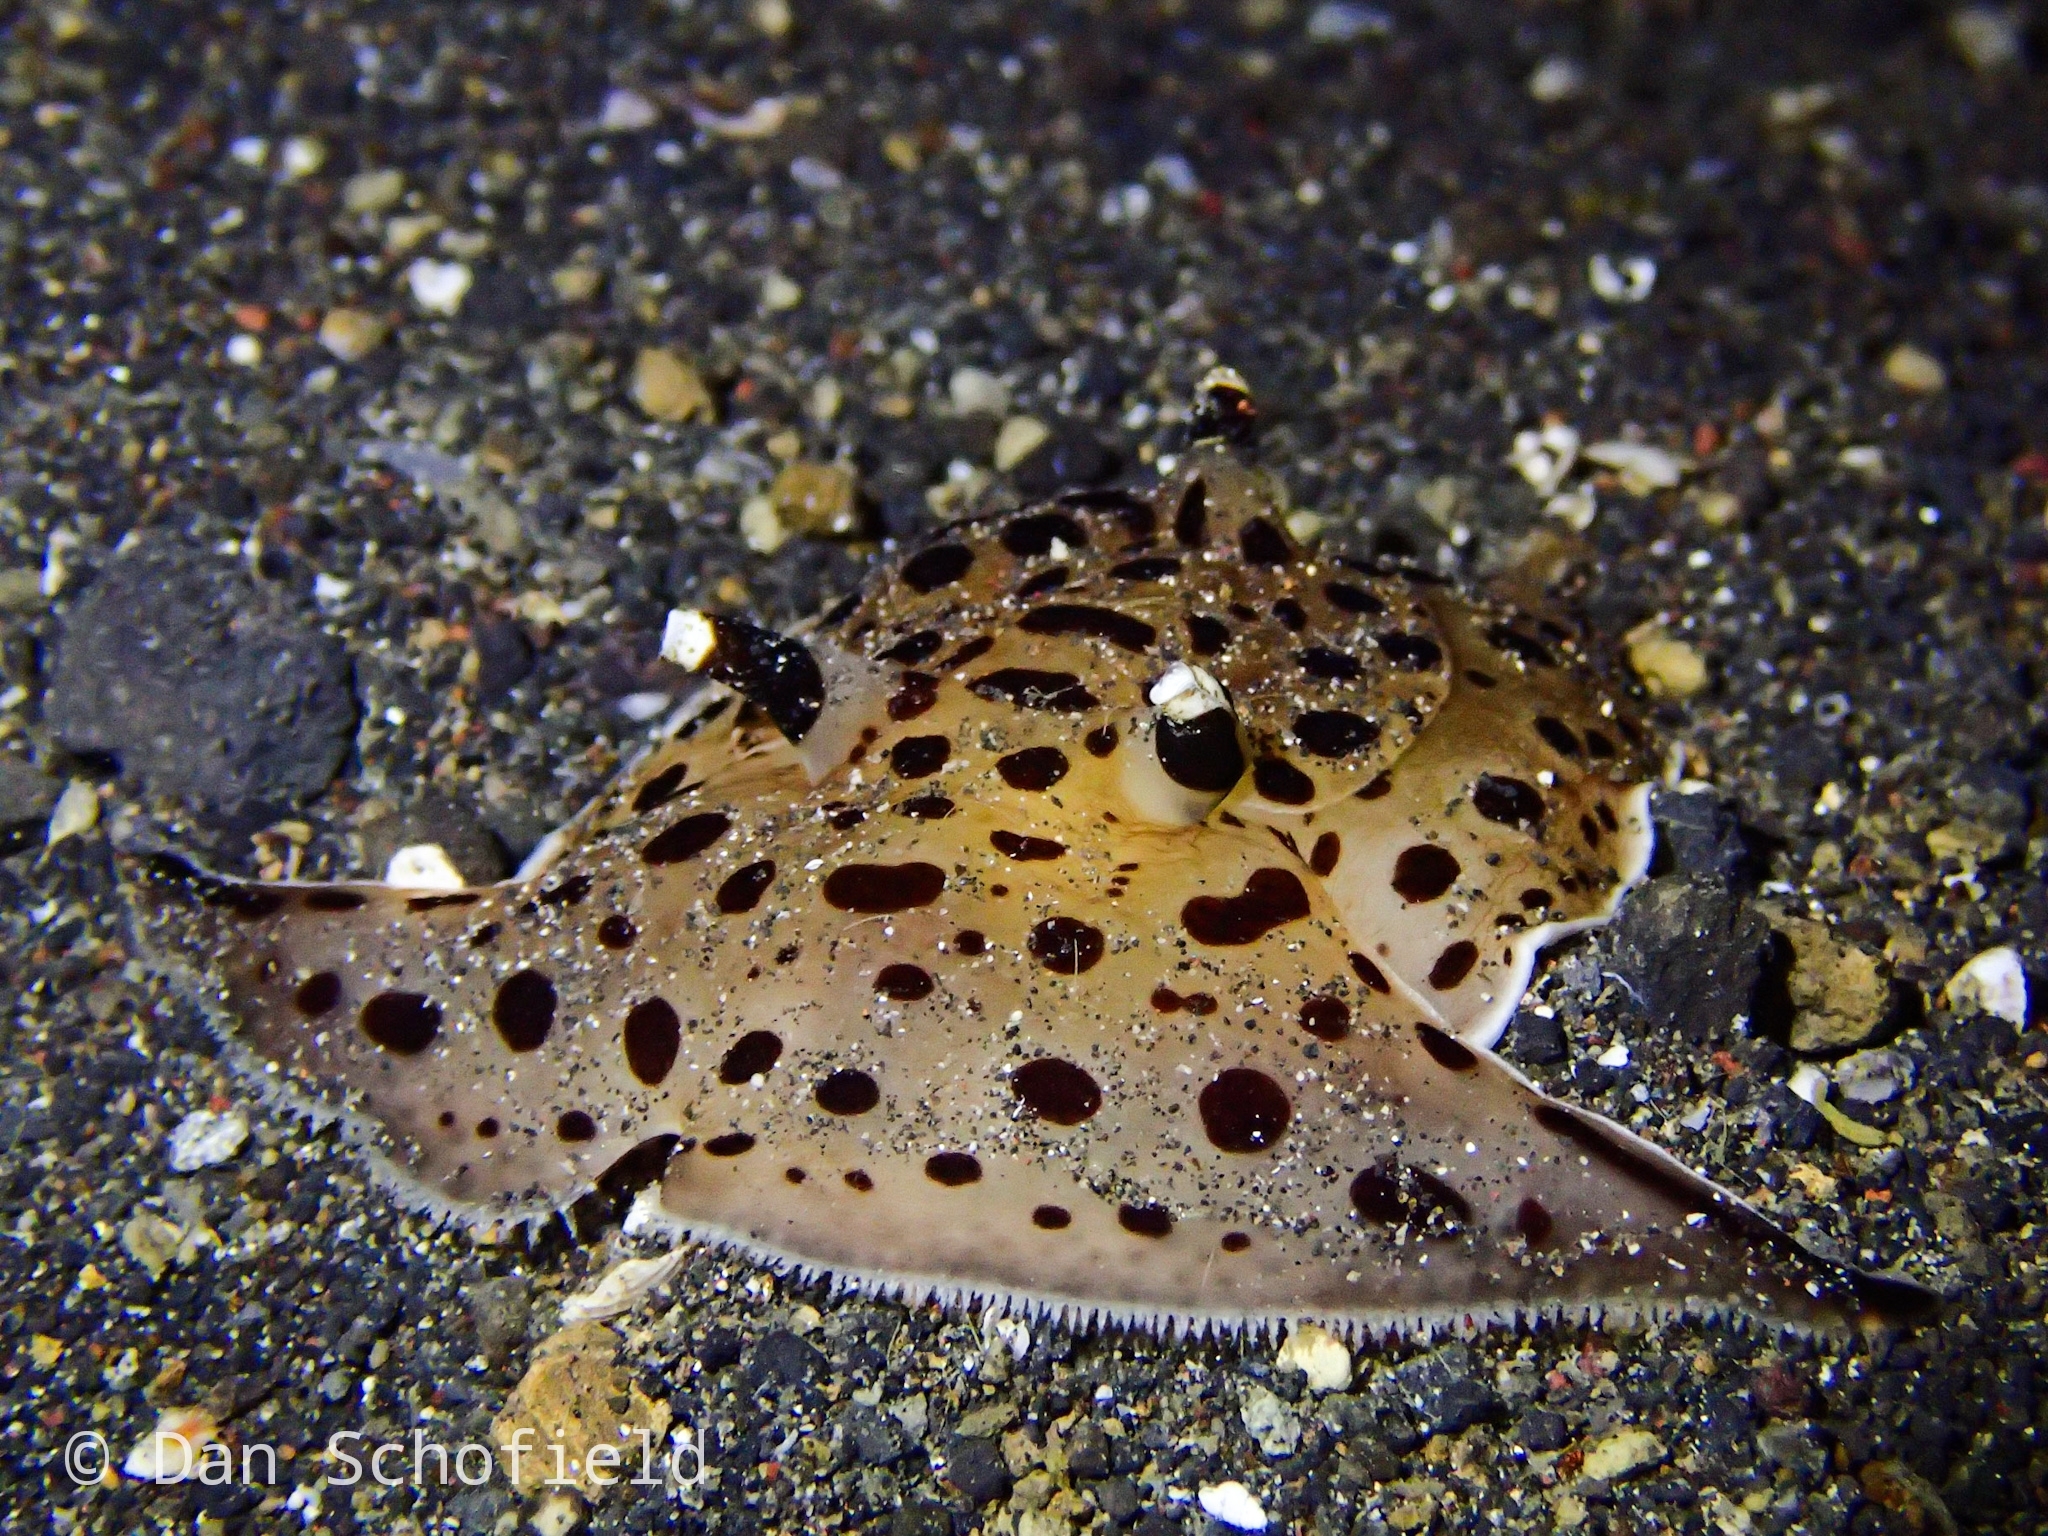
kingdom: Animalia
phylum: Mollusca
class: Gastropoda
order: Pleurobranchida
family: Pleurobranchaeidae
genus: Euselenops
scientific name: Euselenops luniceps
